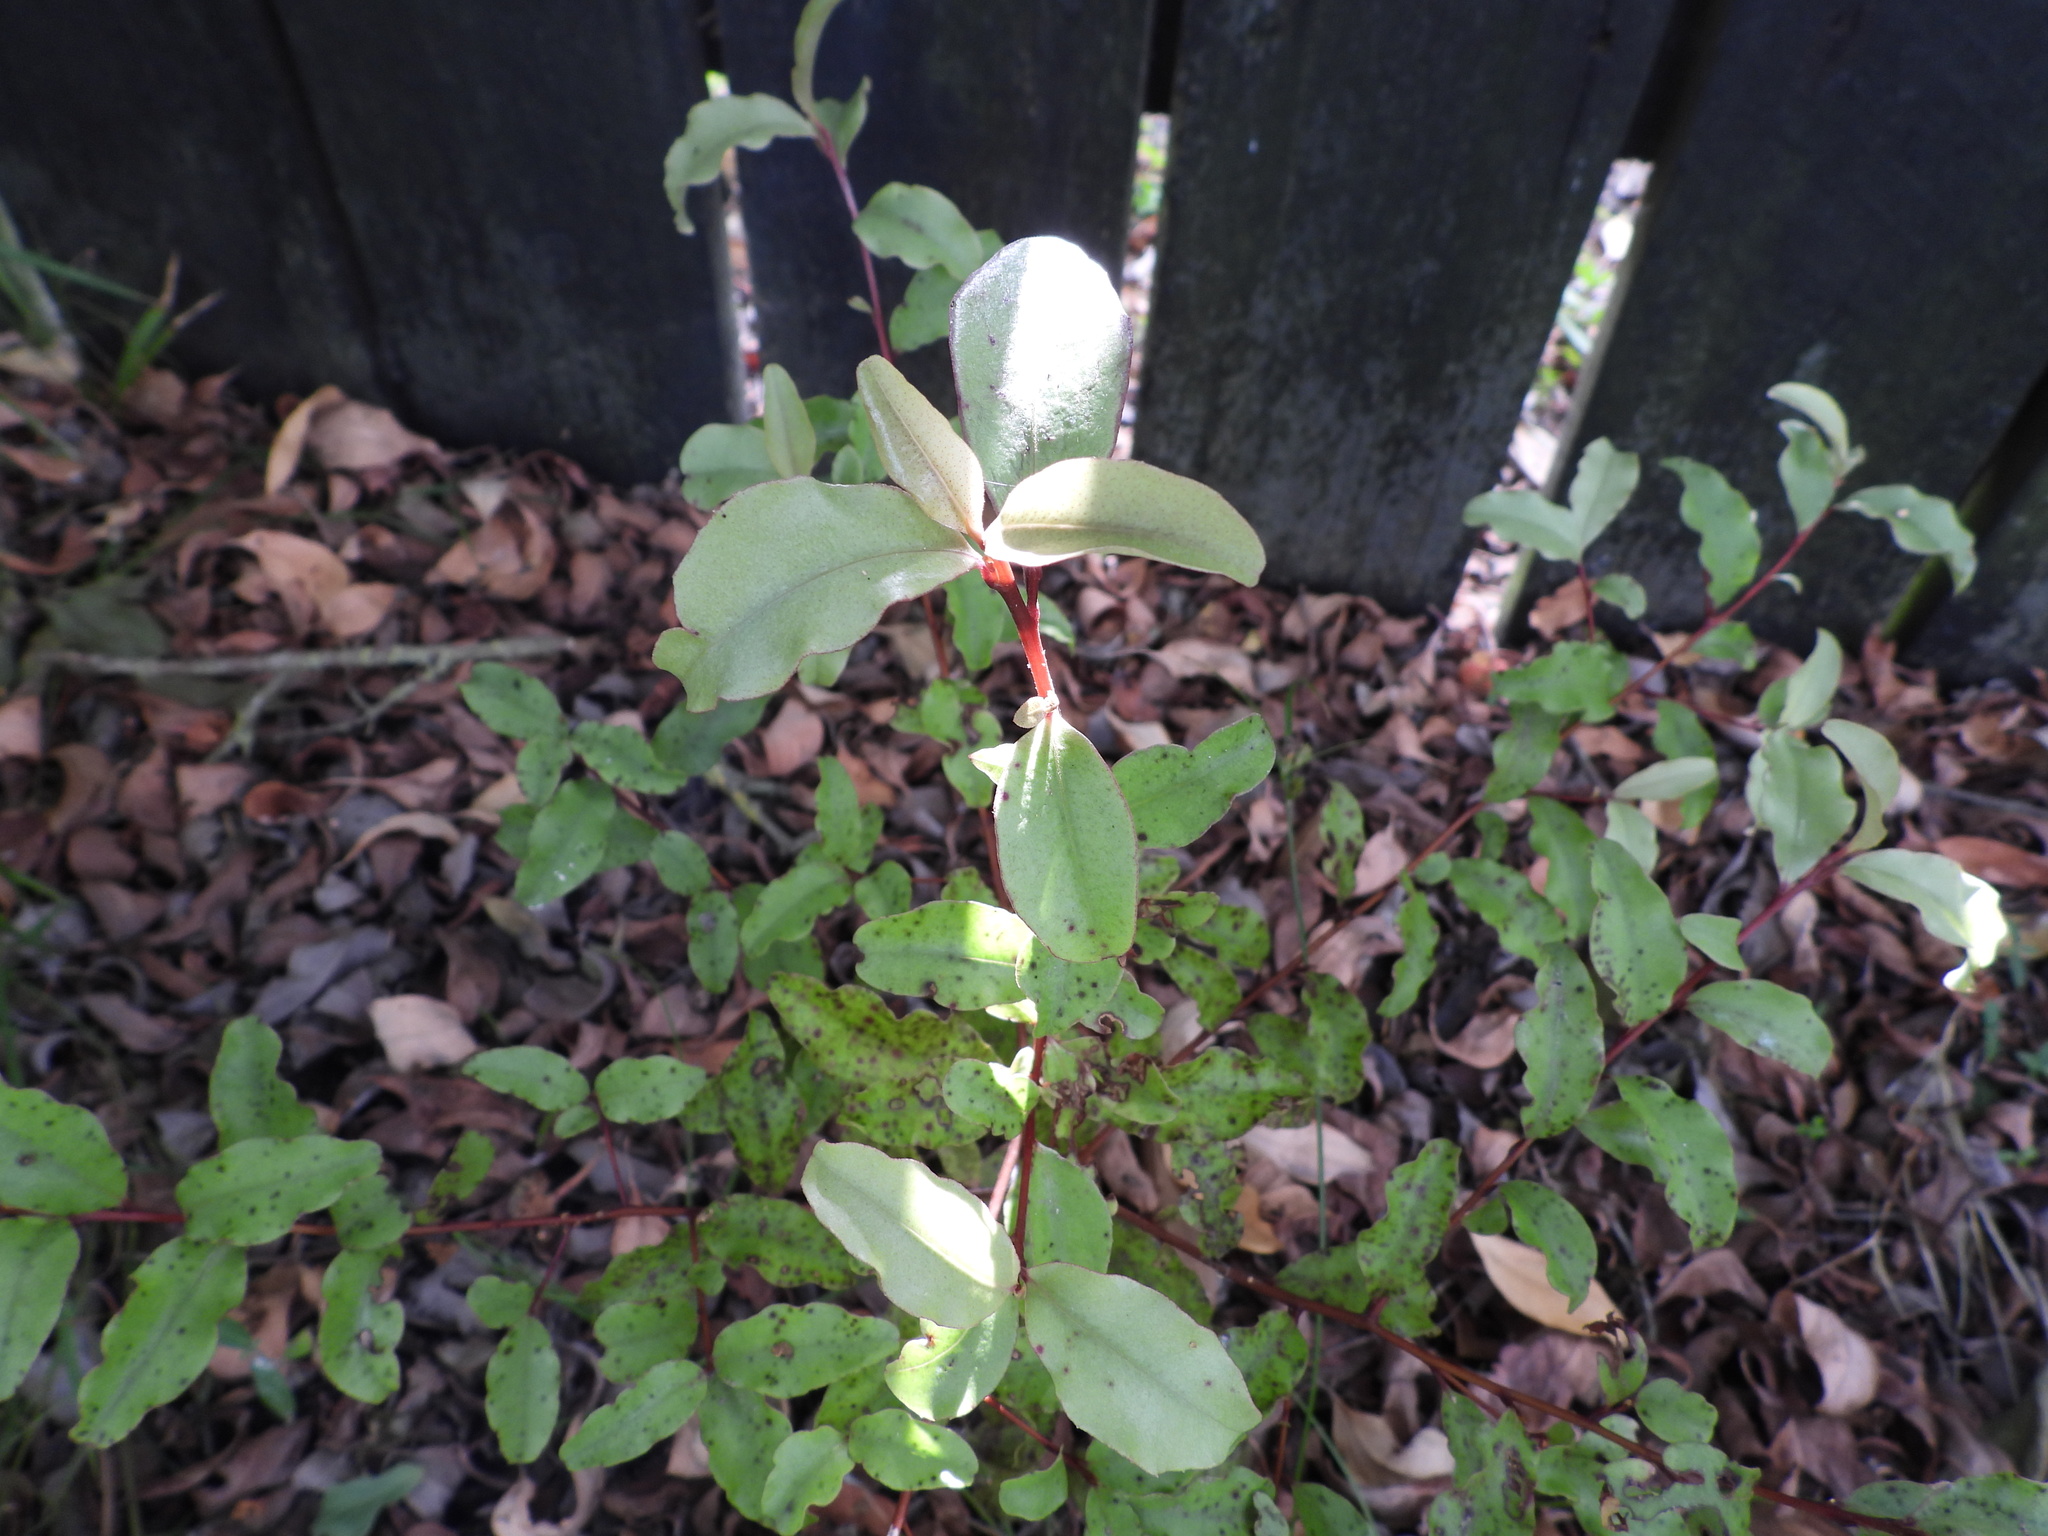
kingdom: Plantae
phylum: Tracheophyta
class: Magnoliopsida
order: Ericales
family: Primulaceae
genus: Myrsine
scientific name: Myrsine australis
